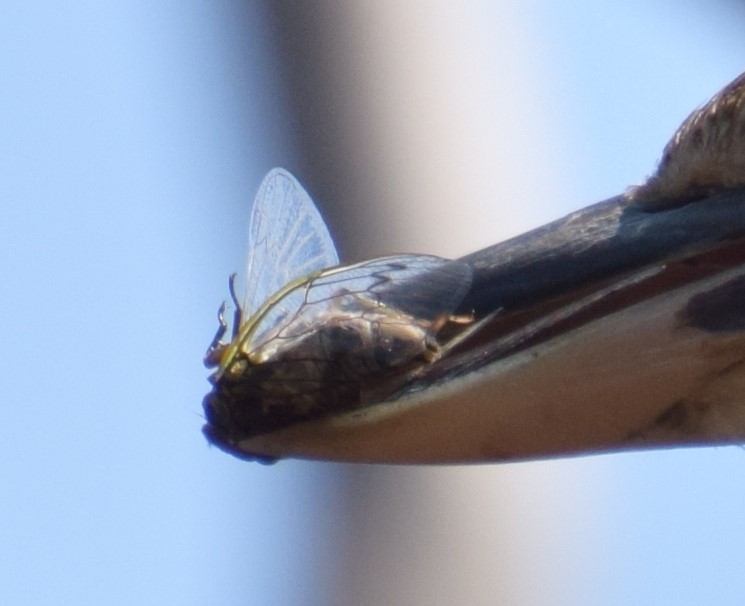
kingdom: Animalia
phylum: Arthropoda
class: Insecta
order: Hemiptera
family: Cicadidae
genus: Arunta
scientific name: Arunta perulata
